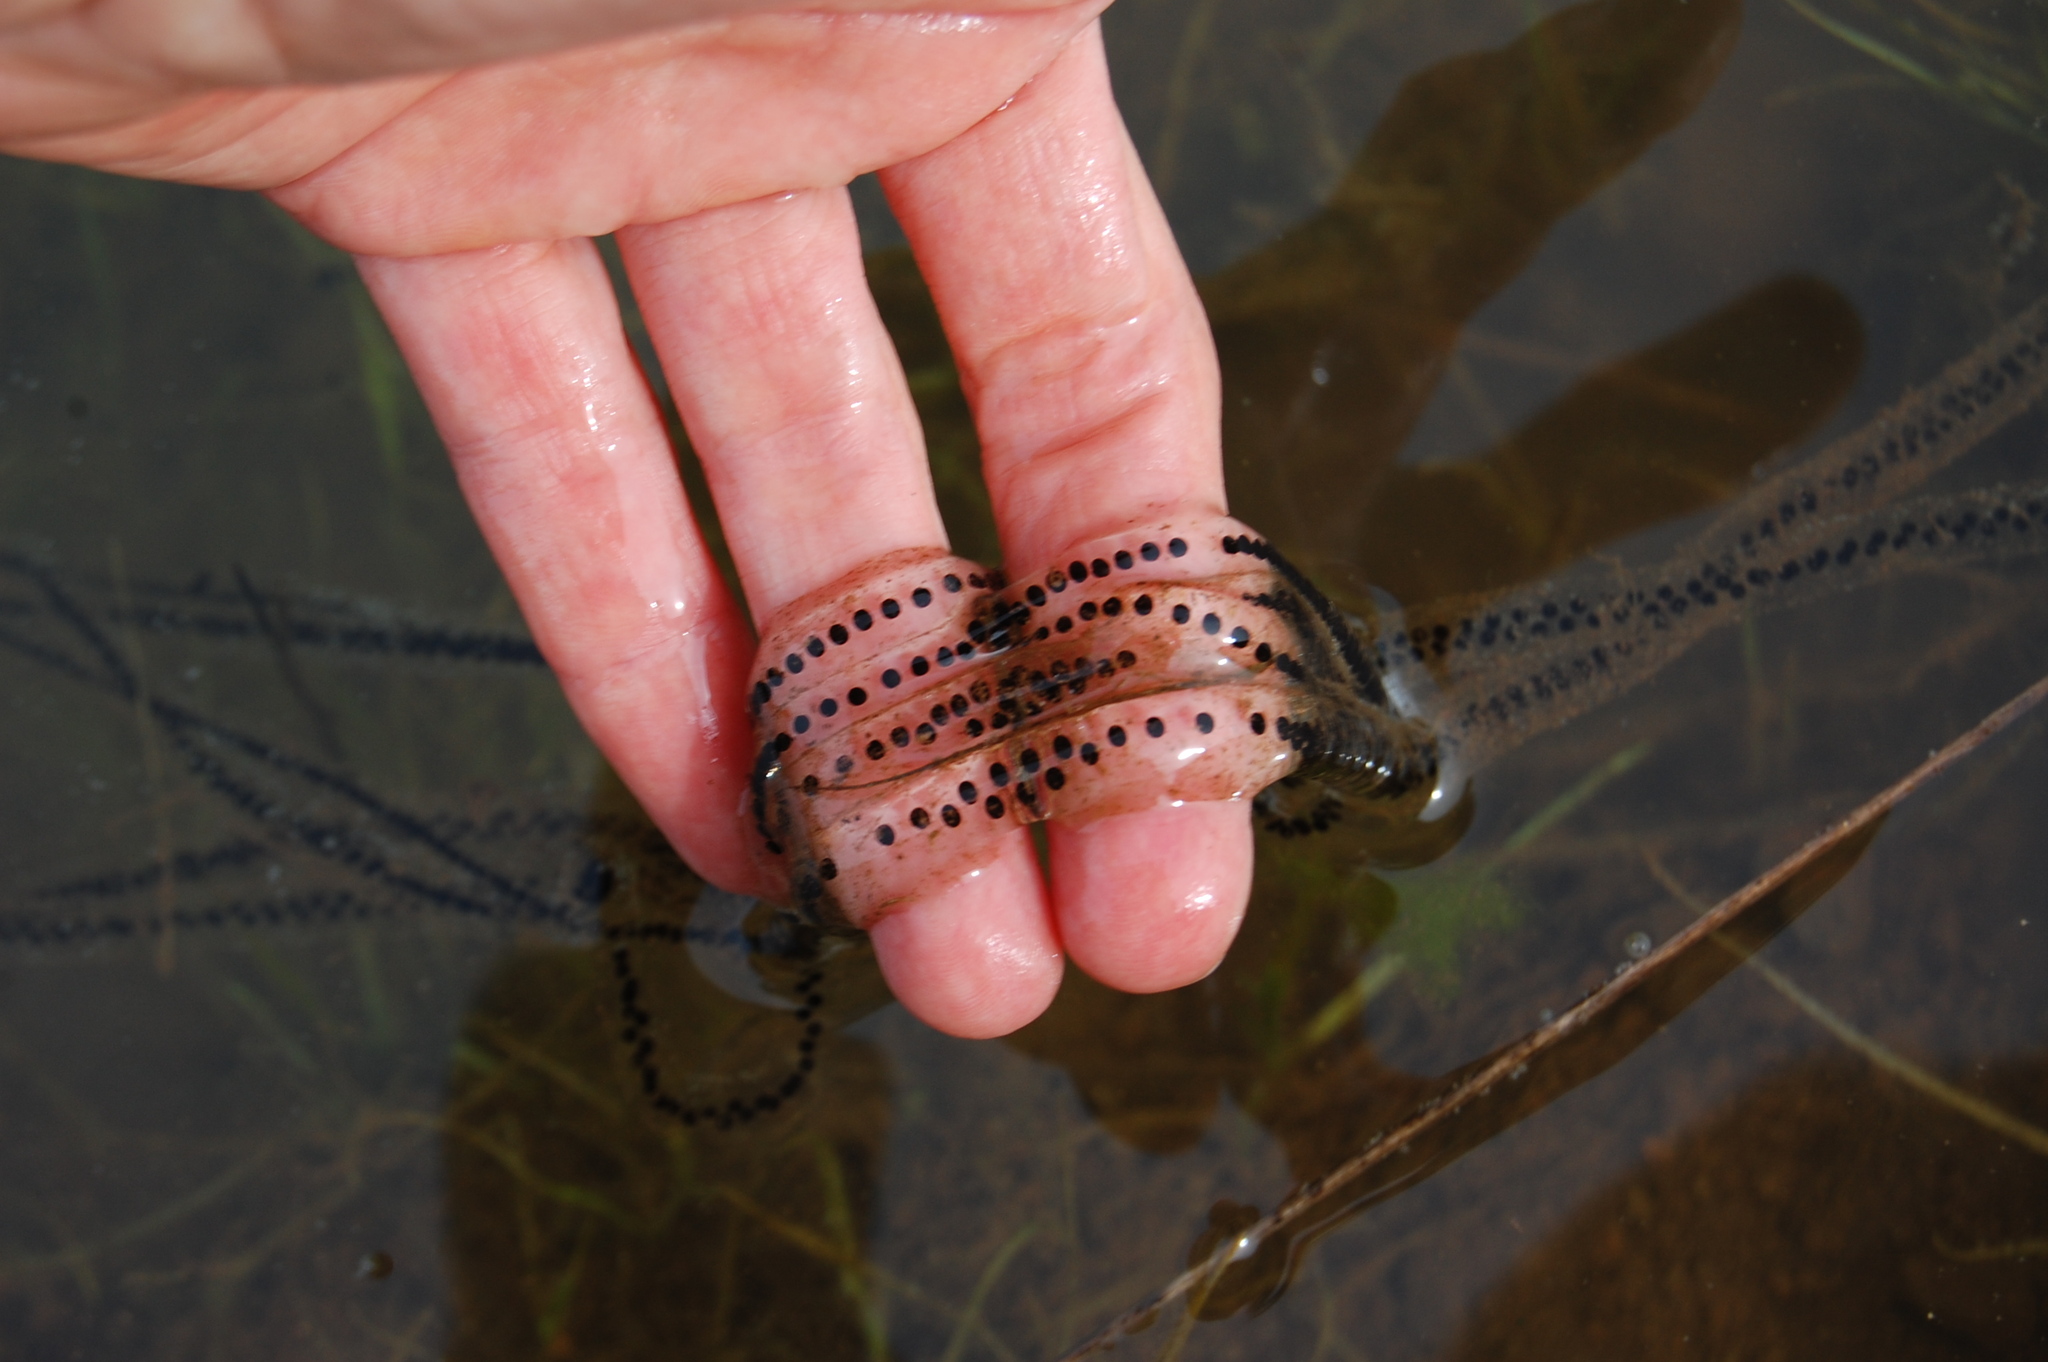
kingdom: Animalia
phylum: Chordata
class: Amphibia
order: Anura
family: Bufonidae
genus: Anaxyrus
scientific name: Anaxyrus boreas
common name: Western toad
